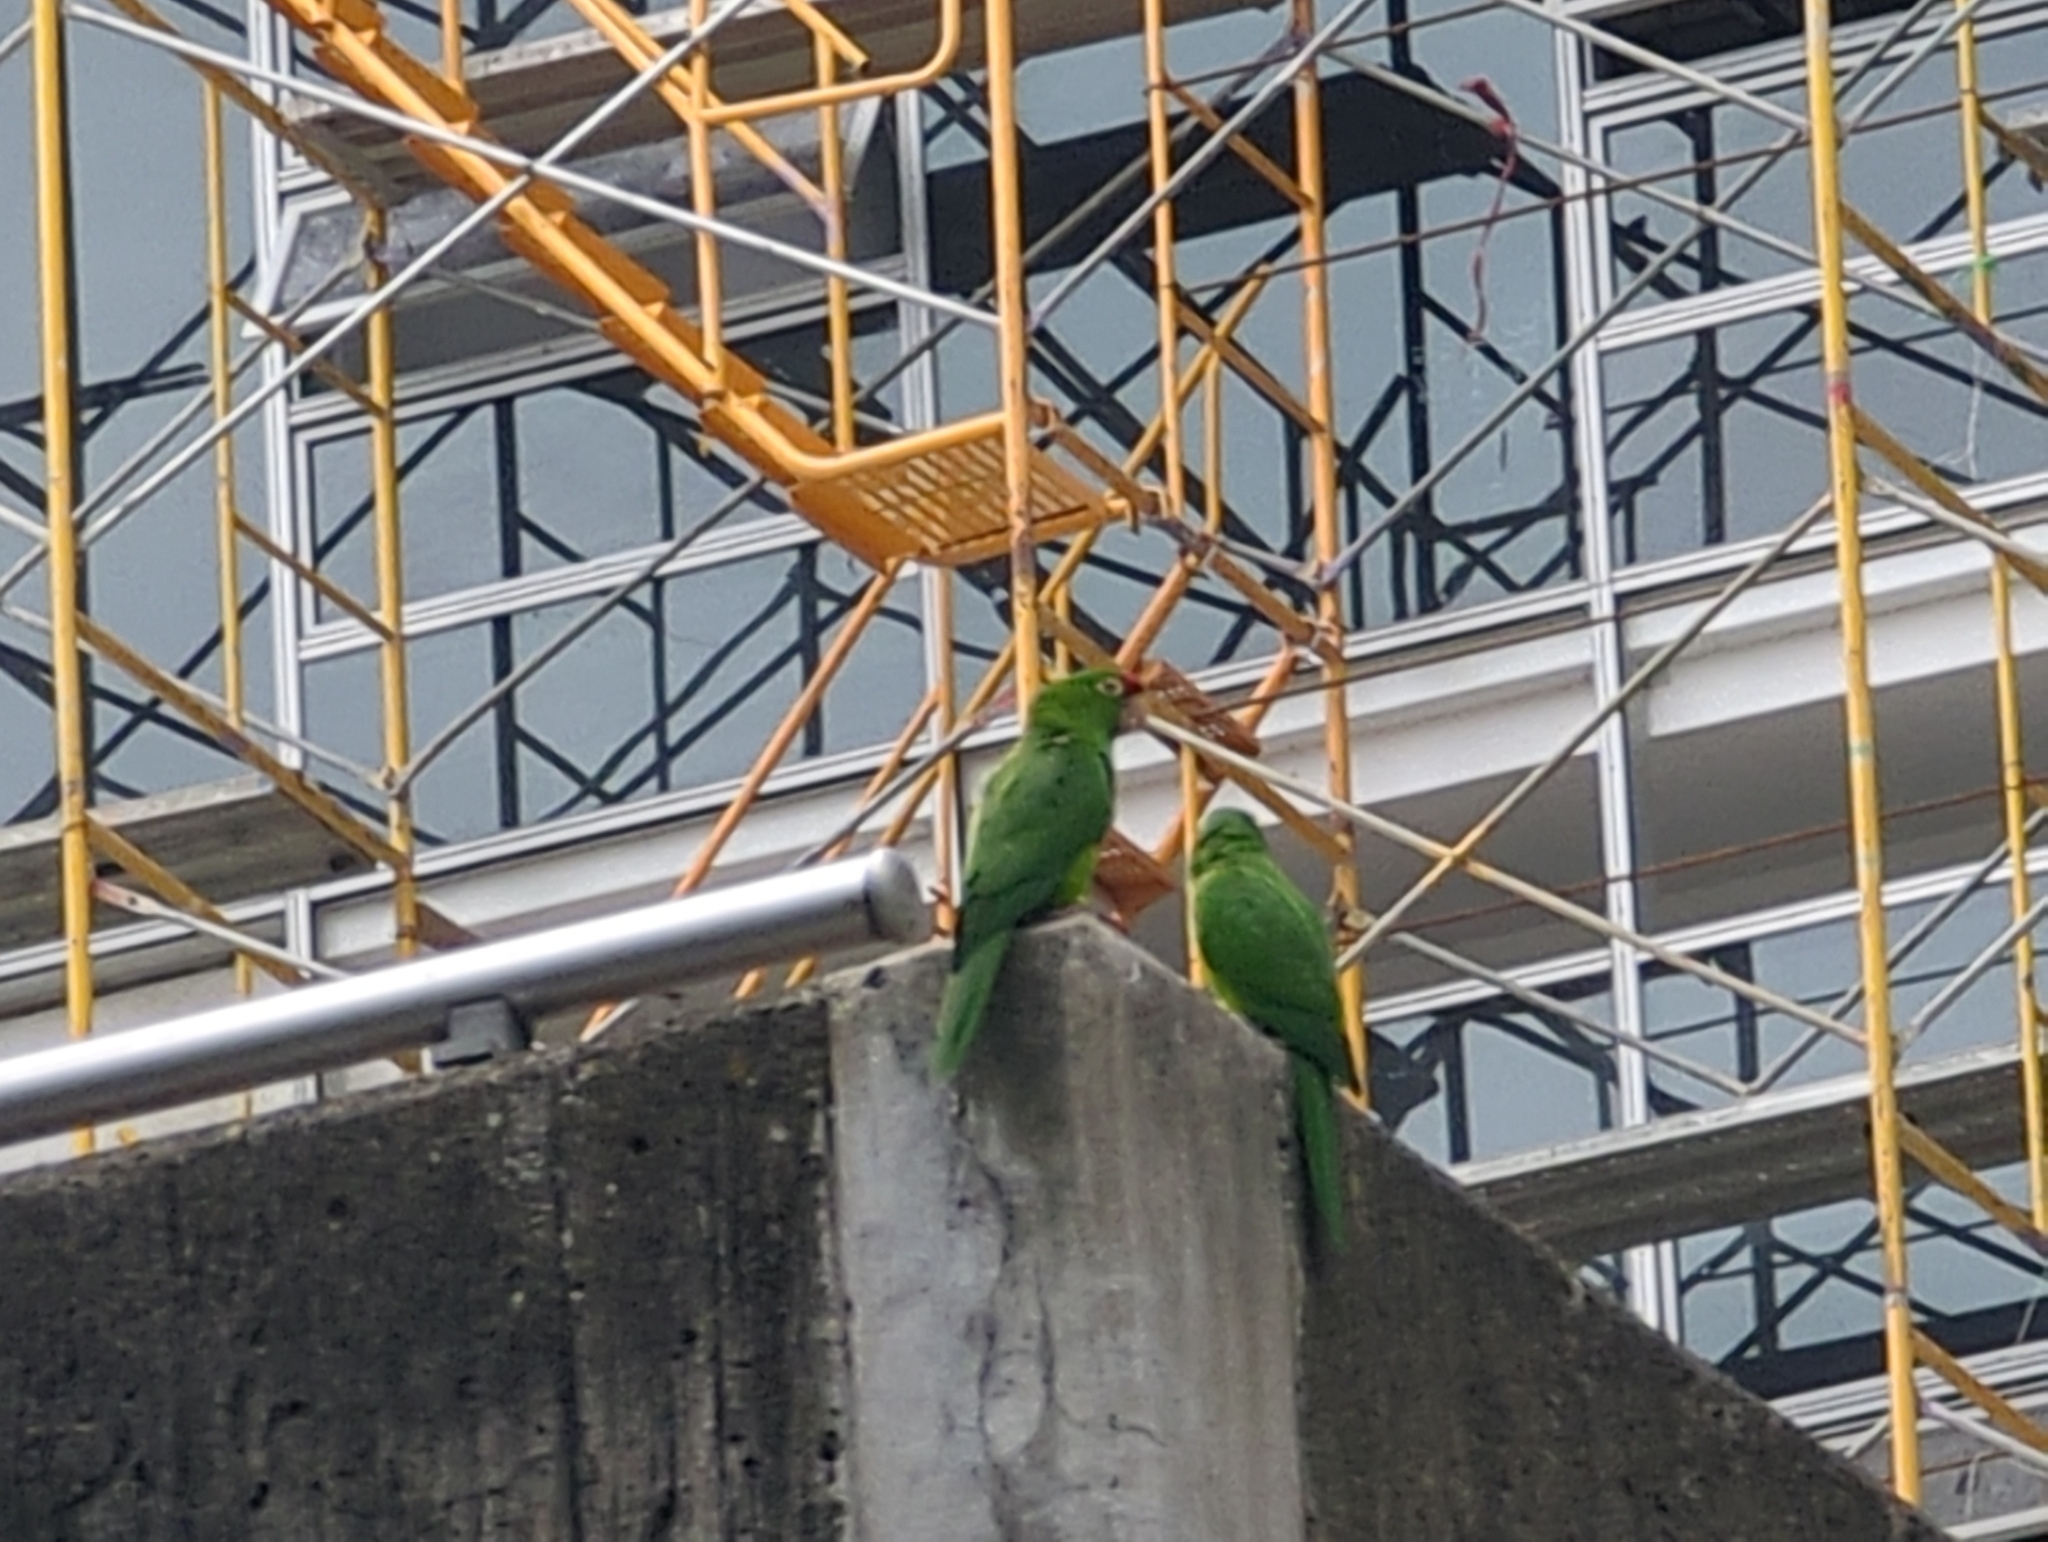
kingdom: Animalia
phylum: Chordata
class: Aves
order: Psittaciformes
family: Psittacidae
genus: Aratinga
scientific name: Aratinga finschi
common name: Crimson-fronted parakeet
